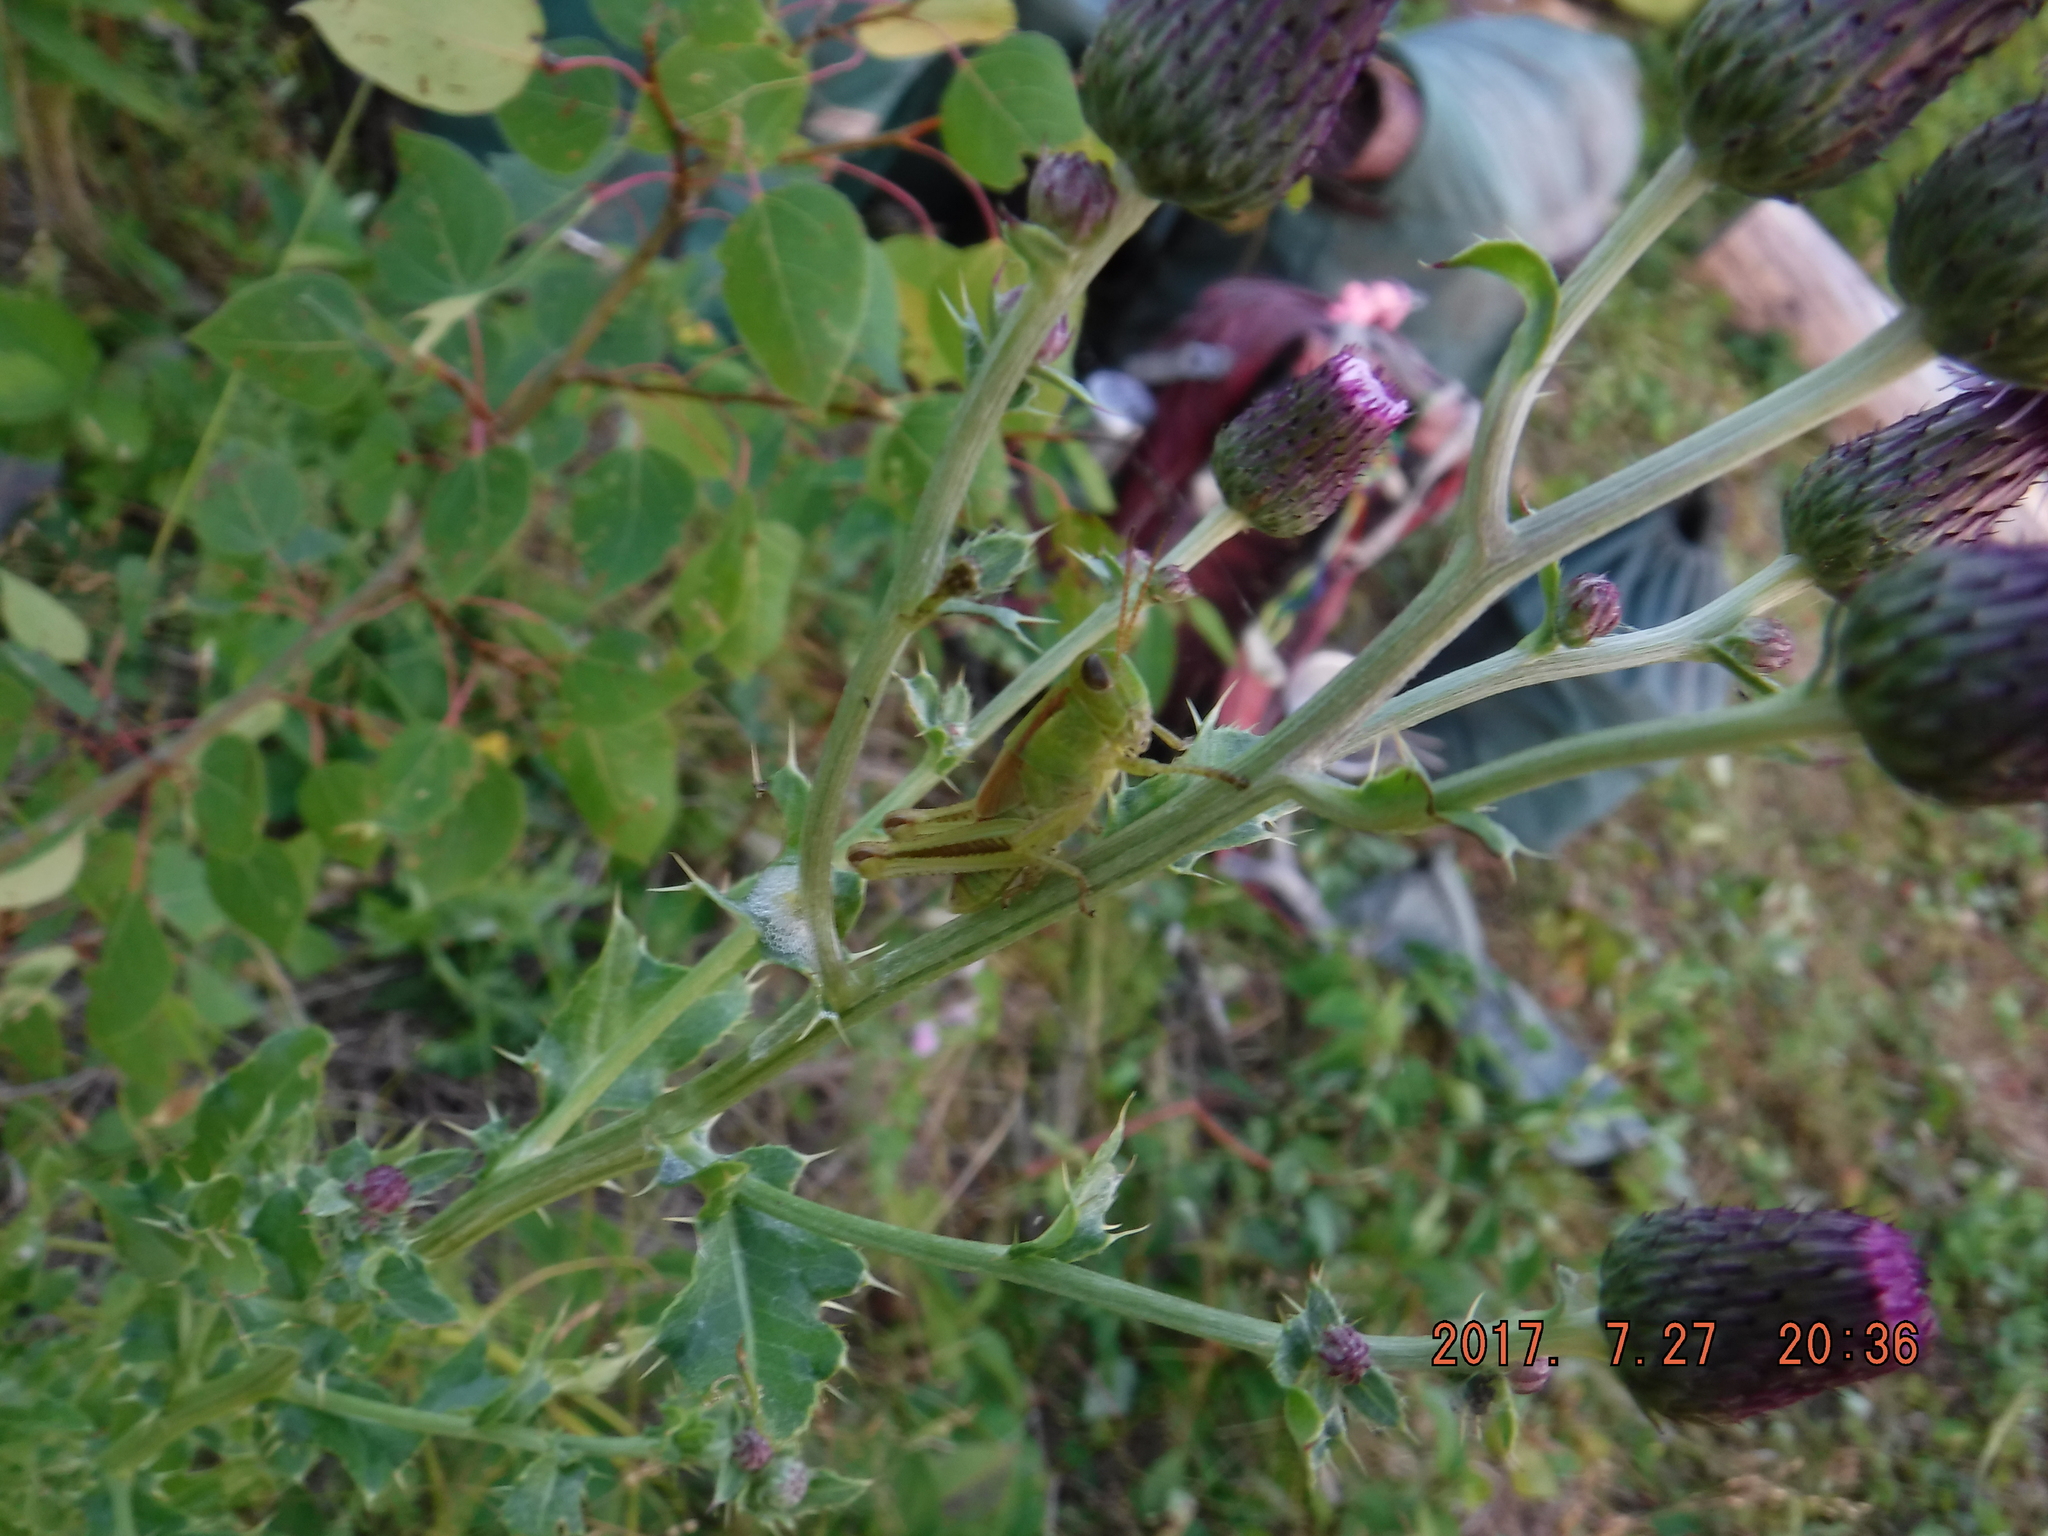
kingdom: Animalia
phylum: Arthropoda
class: Insecta
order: Orthoptera
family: Acrididae
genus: Melanoplus
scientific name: Melanoplus
